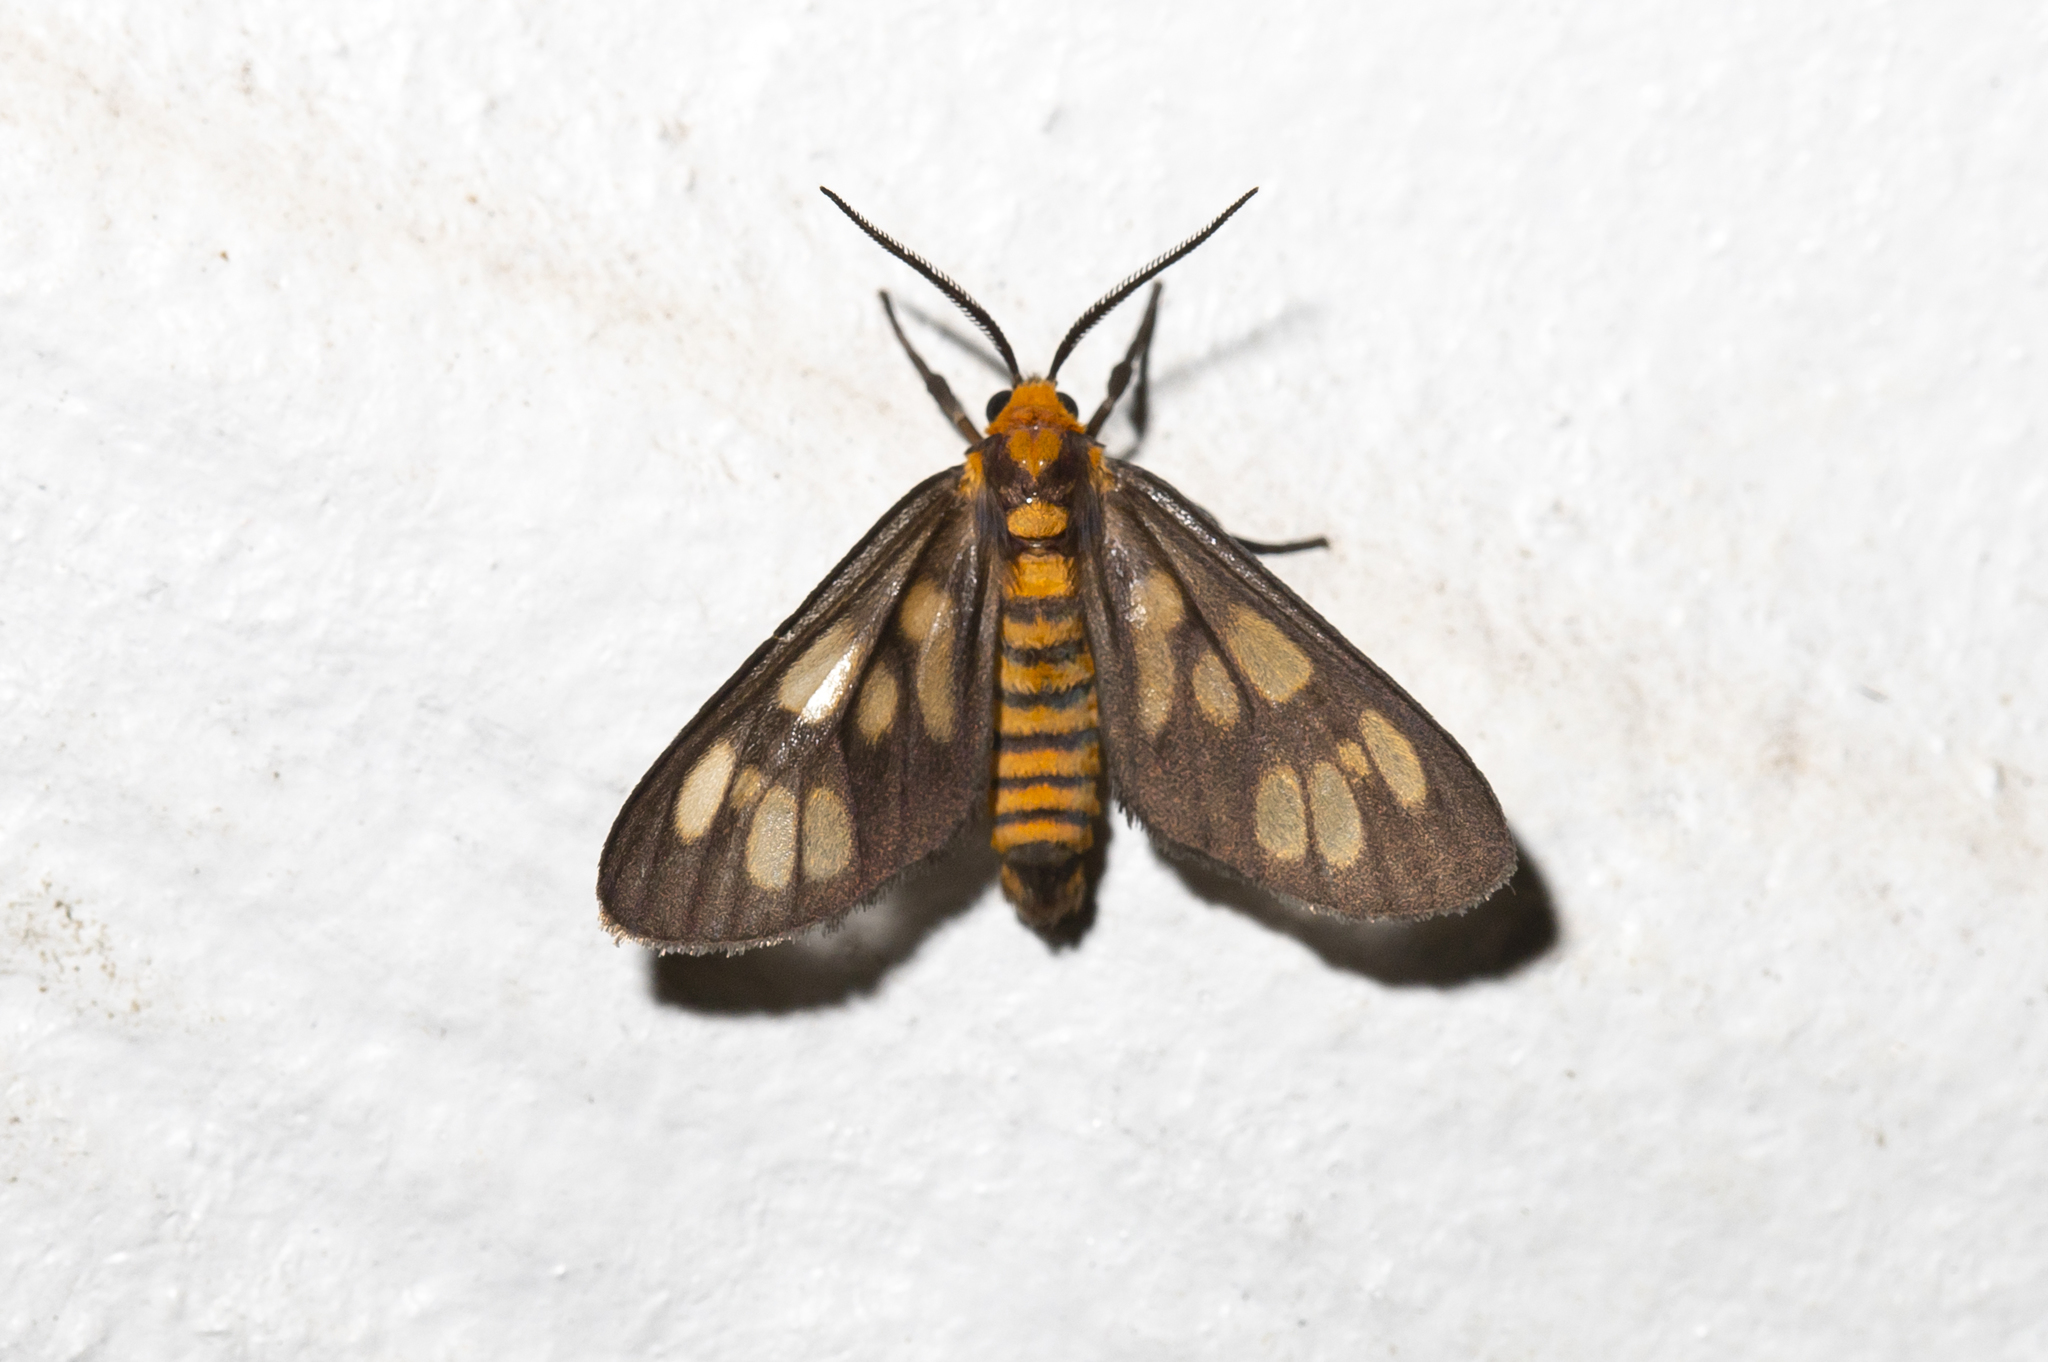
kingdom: Animalia
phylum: Arthropoda
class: Insecta
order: Lepidoptera
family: Erebidae
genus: Eressa
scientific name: Eressa megalospilia
